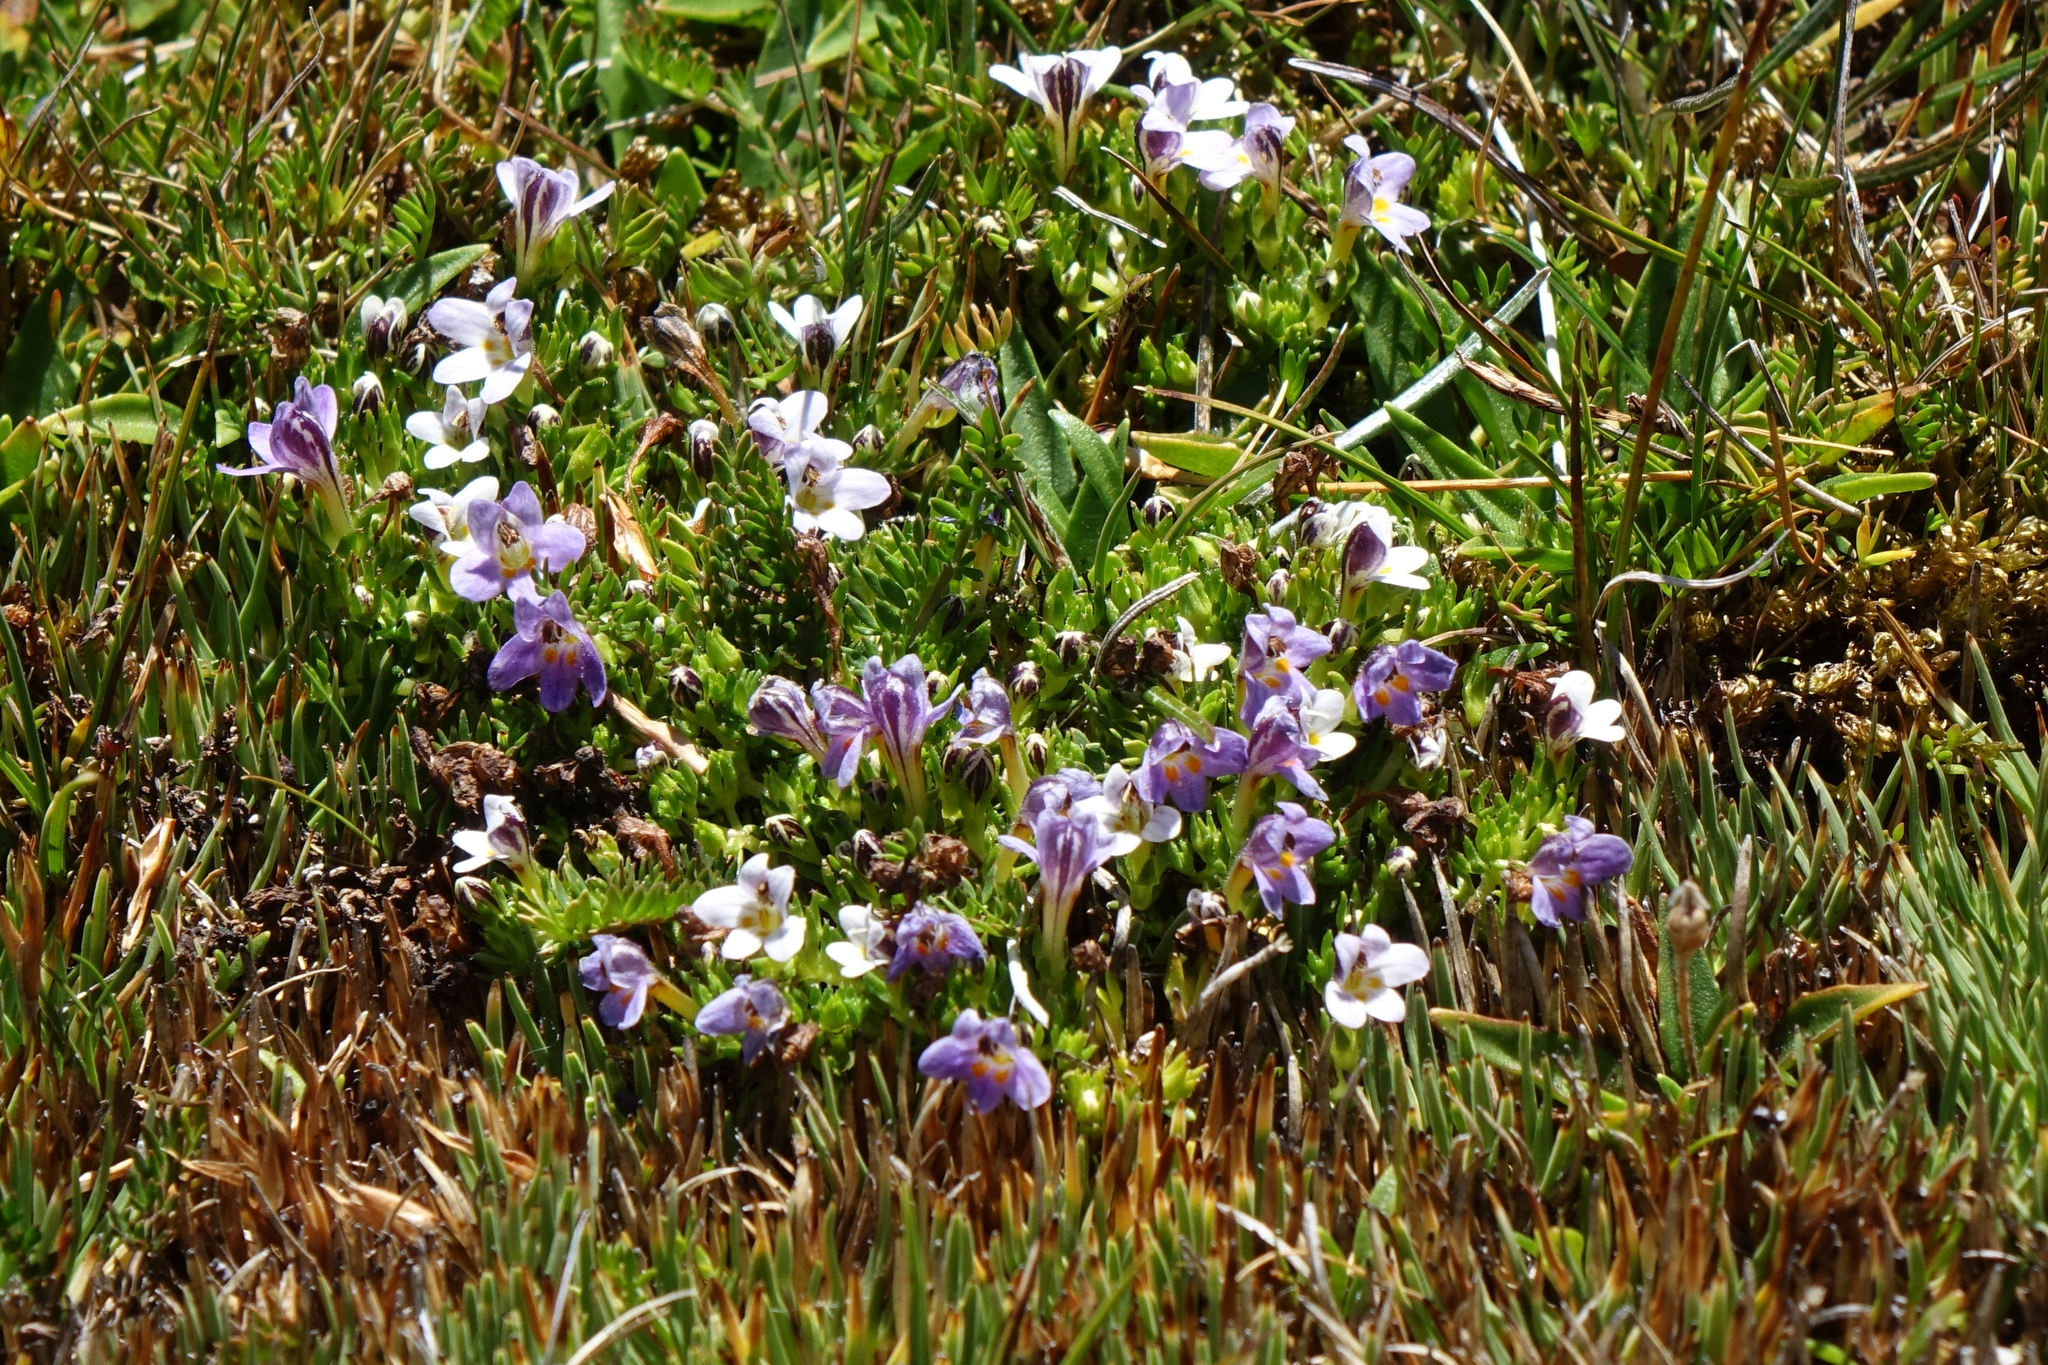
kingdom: Plantae
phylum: Tracheophyta
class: Magnoliopsida
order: Lamiales
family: Orobanchaceae
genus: Euphrasia
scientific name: Euphrasia dyeri
